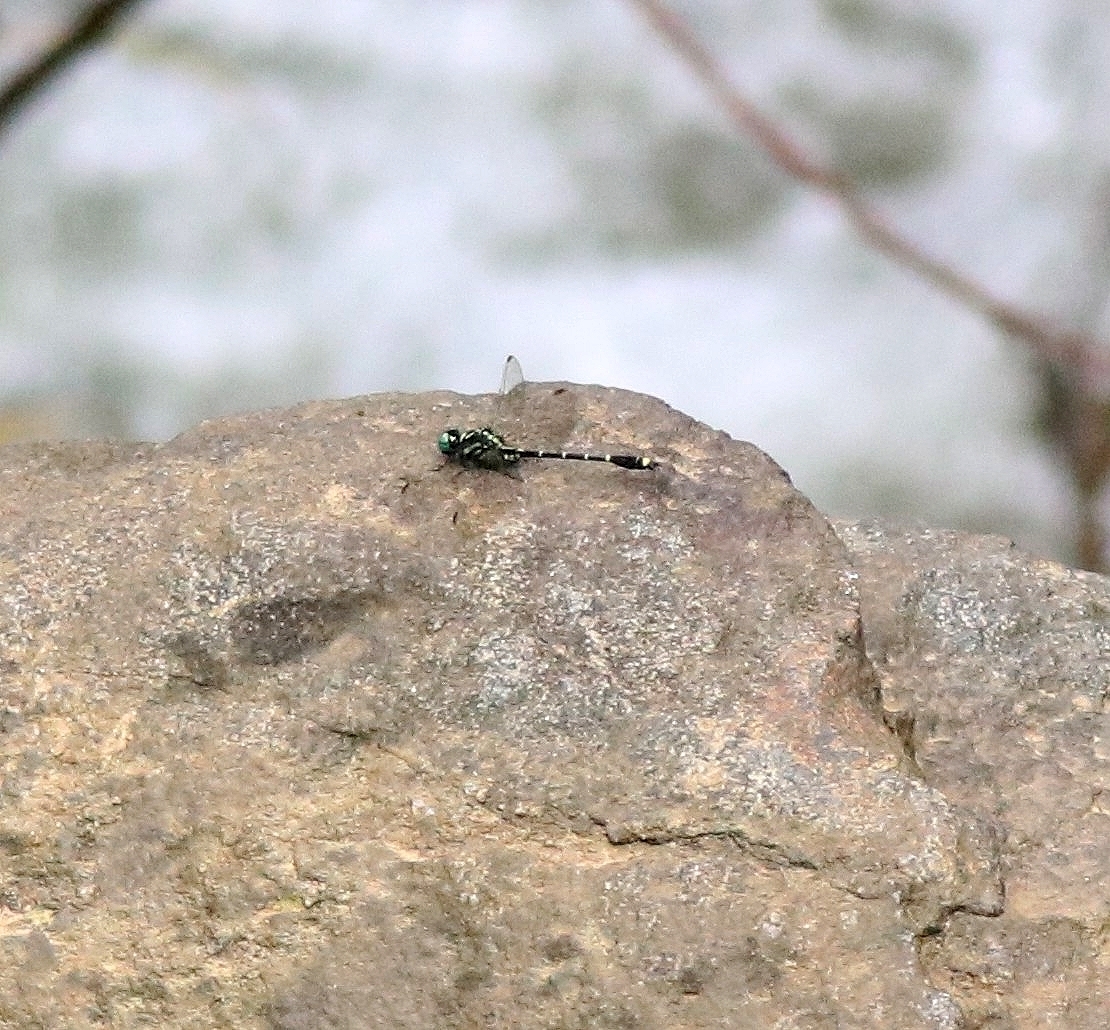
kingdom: Animalia
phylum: Arthropoda
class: Insecta
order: Odonata
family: Gomphidae
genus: Burmagomphus
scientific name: Burmagomphus laidlawi
